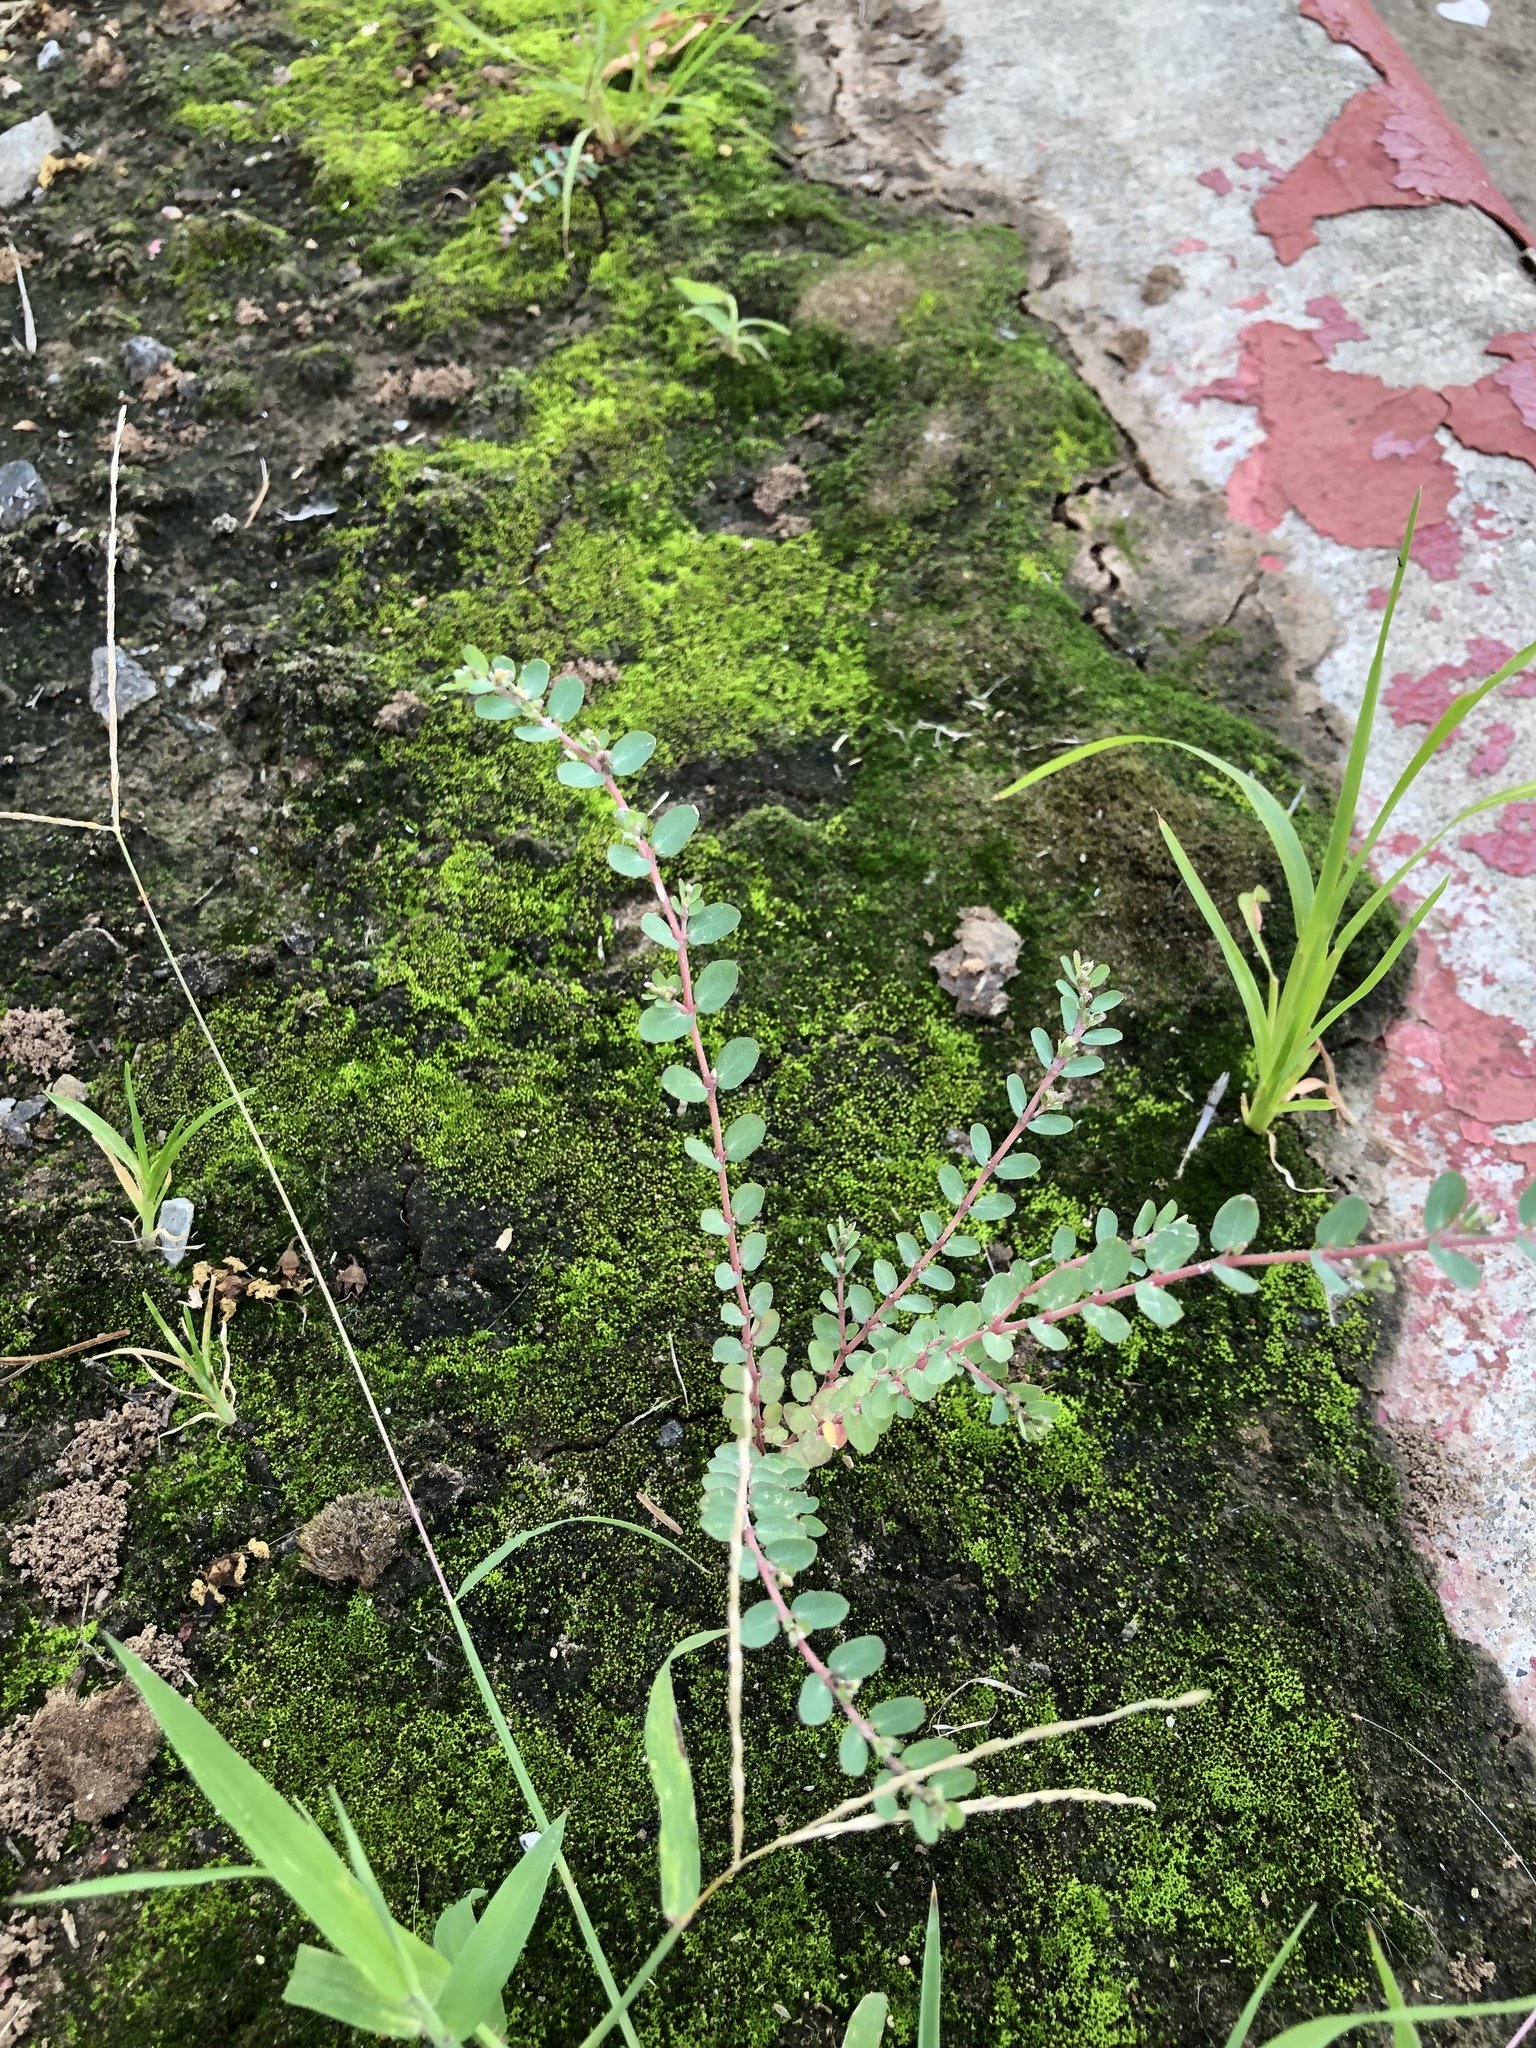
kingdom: Plantae
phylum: Tracheophyta
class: Magnoliopsida
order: Malpighiales
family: Euphorbiaceae
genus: Euphorbia
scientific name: Euphorbia prostrata
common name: Prostrate sandmat
